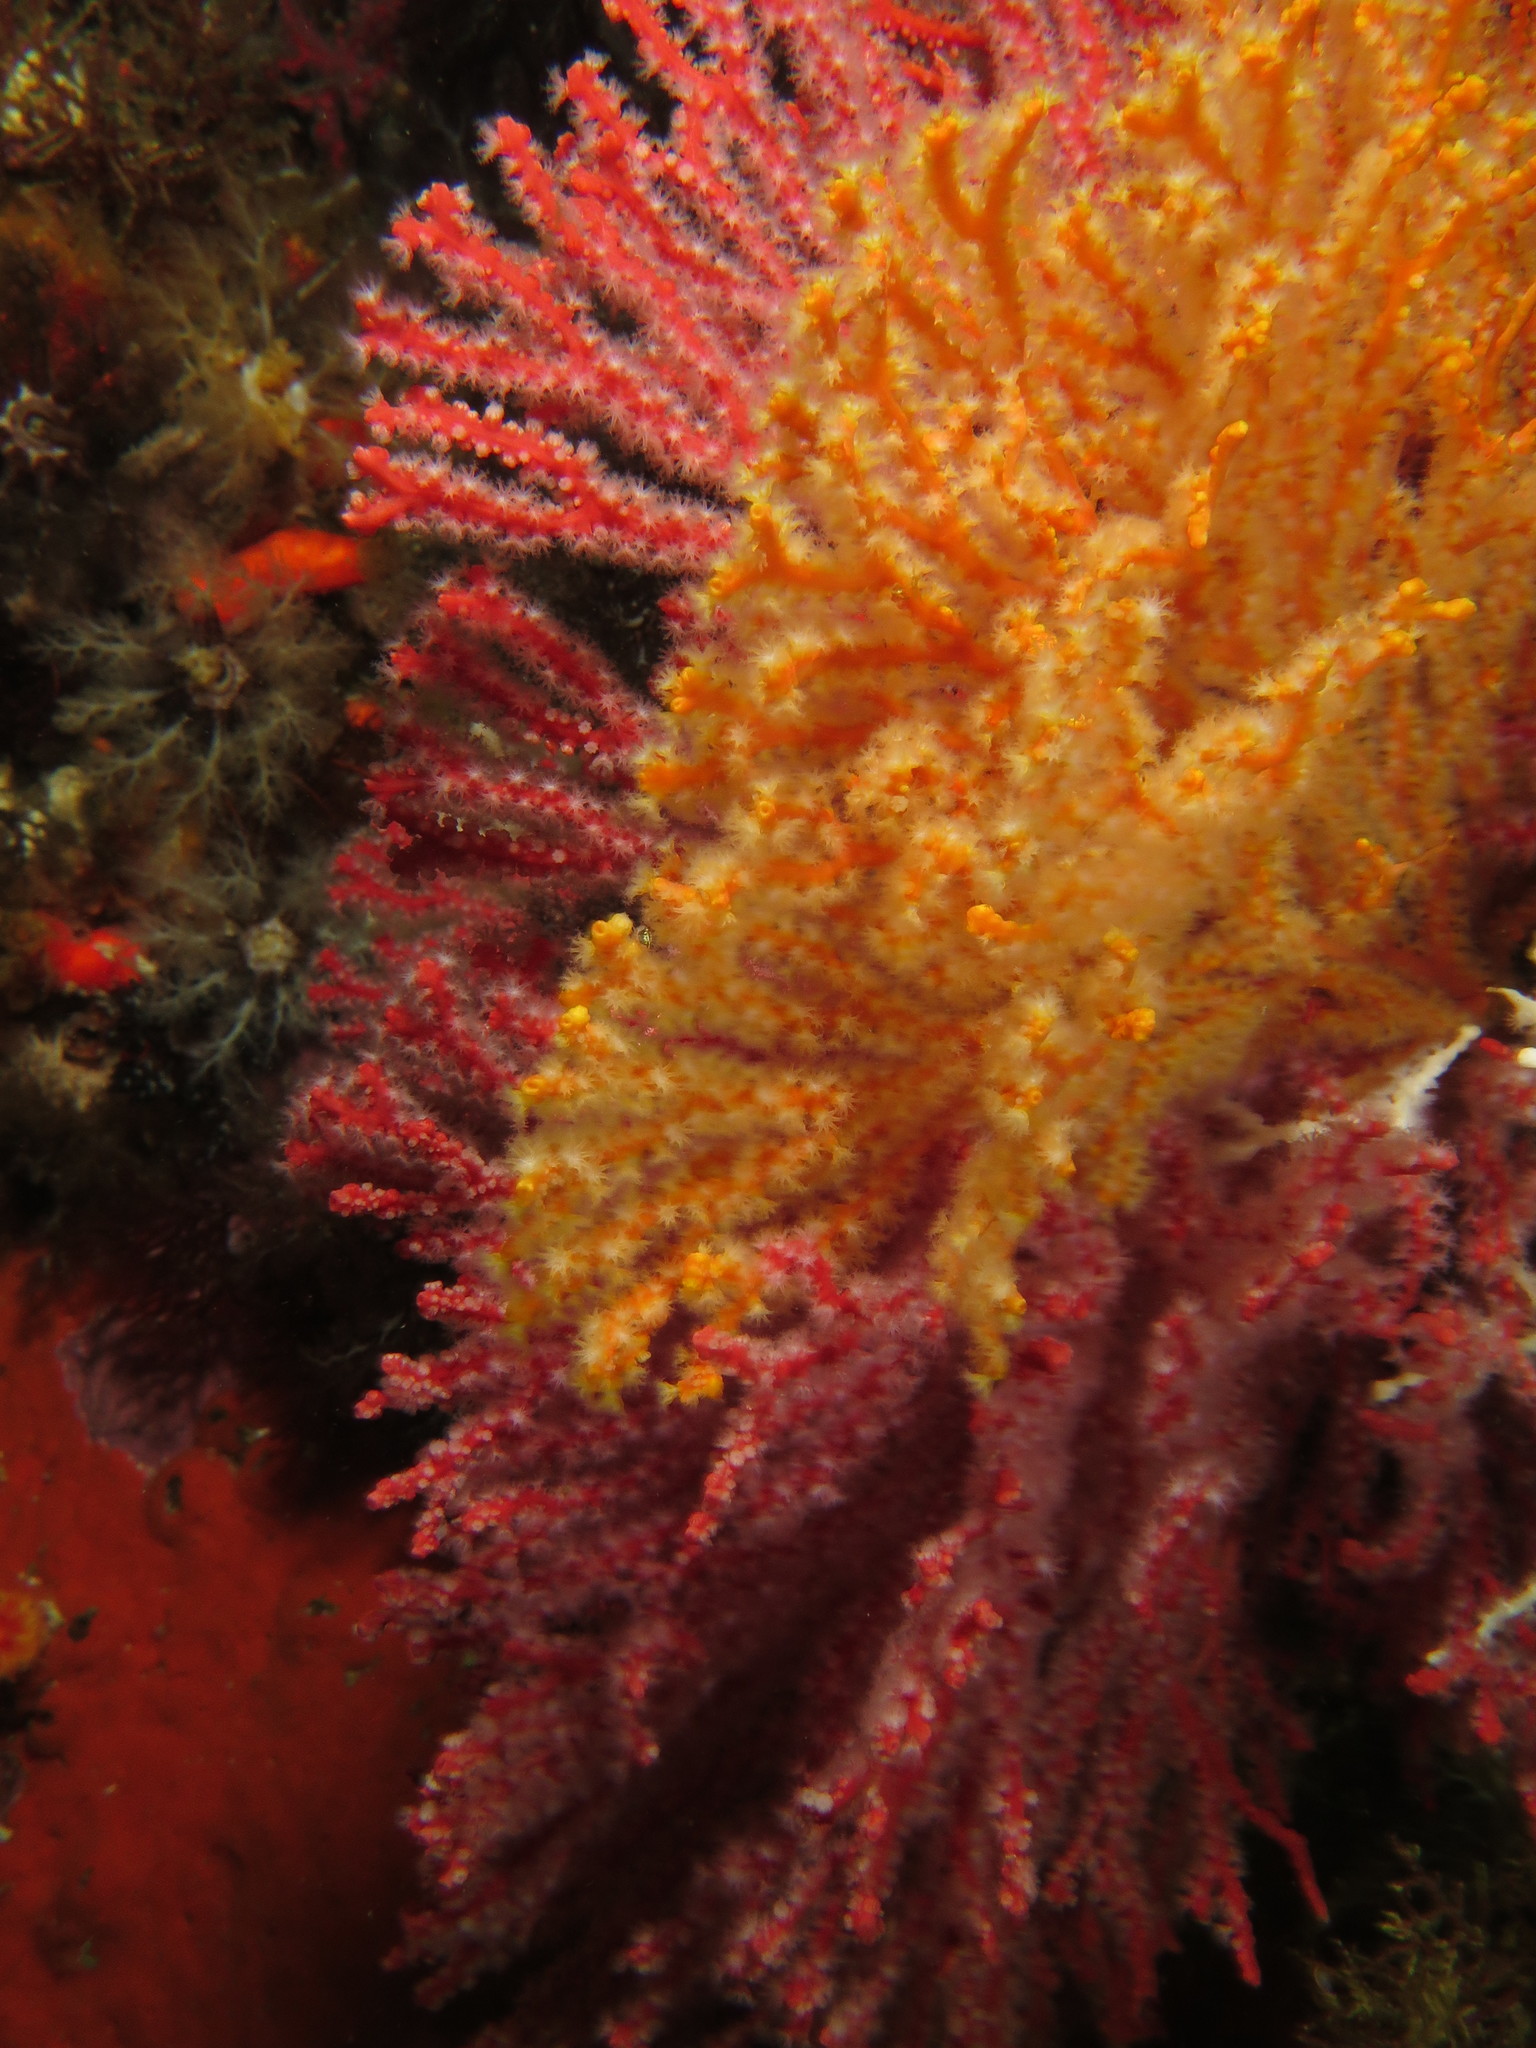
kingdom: Animalia
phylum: Cnidaria
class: Anthozoa
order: Malacalcyonacea
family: Melithaeidae
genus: Melithaea
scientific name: Melithaea rubra
